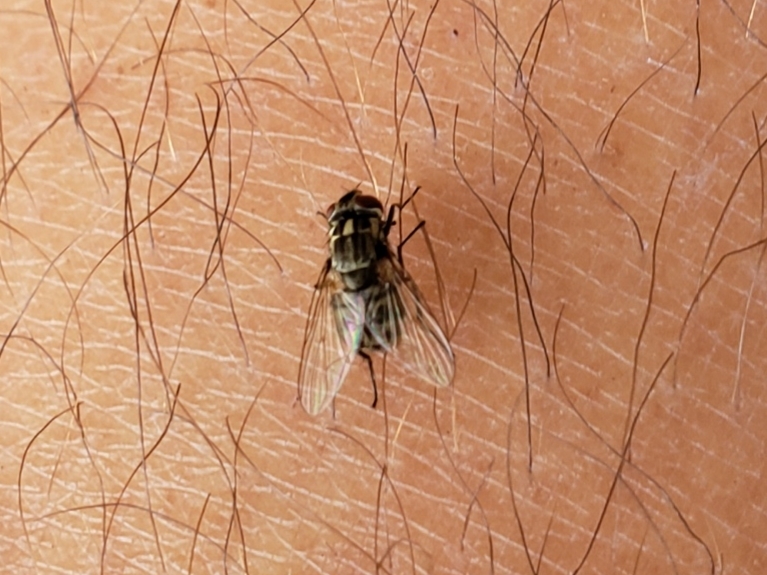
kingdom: Animalia
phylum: Arthropoda
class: Insecta
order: Diptera
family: Muscidae
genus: Stomoxys
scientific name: Stomoxys calcitrans
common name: Stable fly
